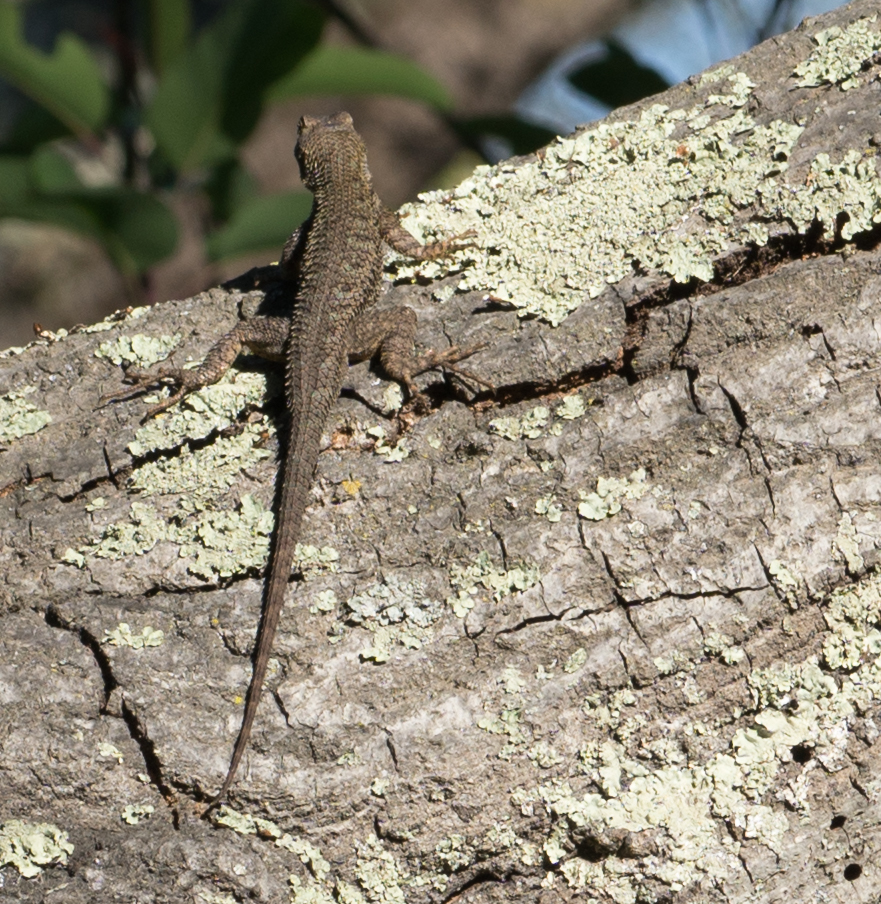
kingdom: Animalia
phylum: Chordata
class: Squamata
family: Phrynosomatidae
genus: Sceloporus
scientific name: Sceloporus occidentalis
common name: Western fence lizard
